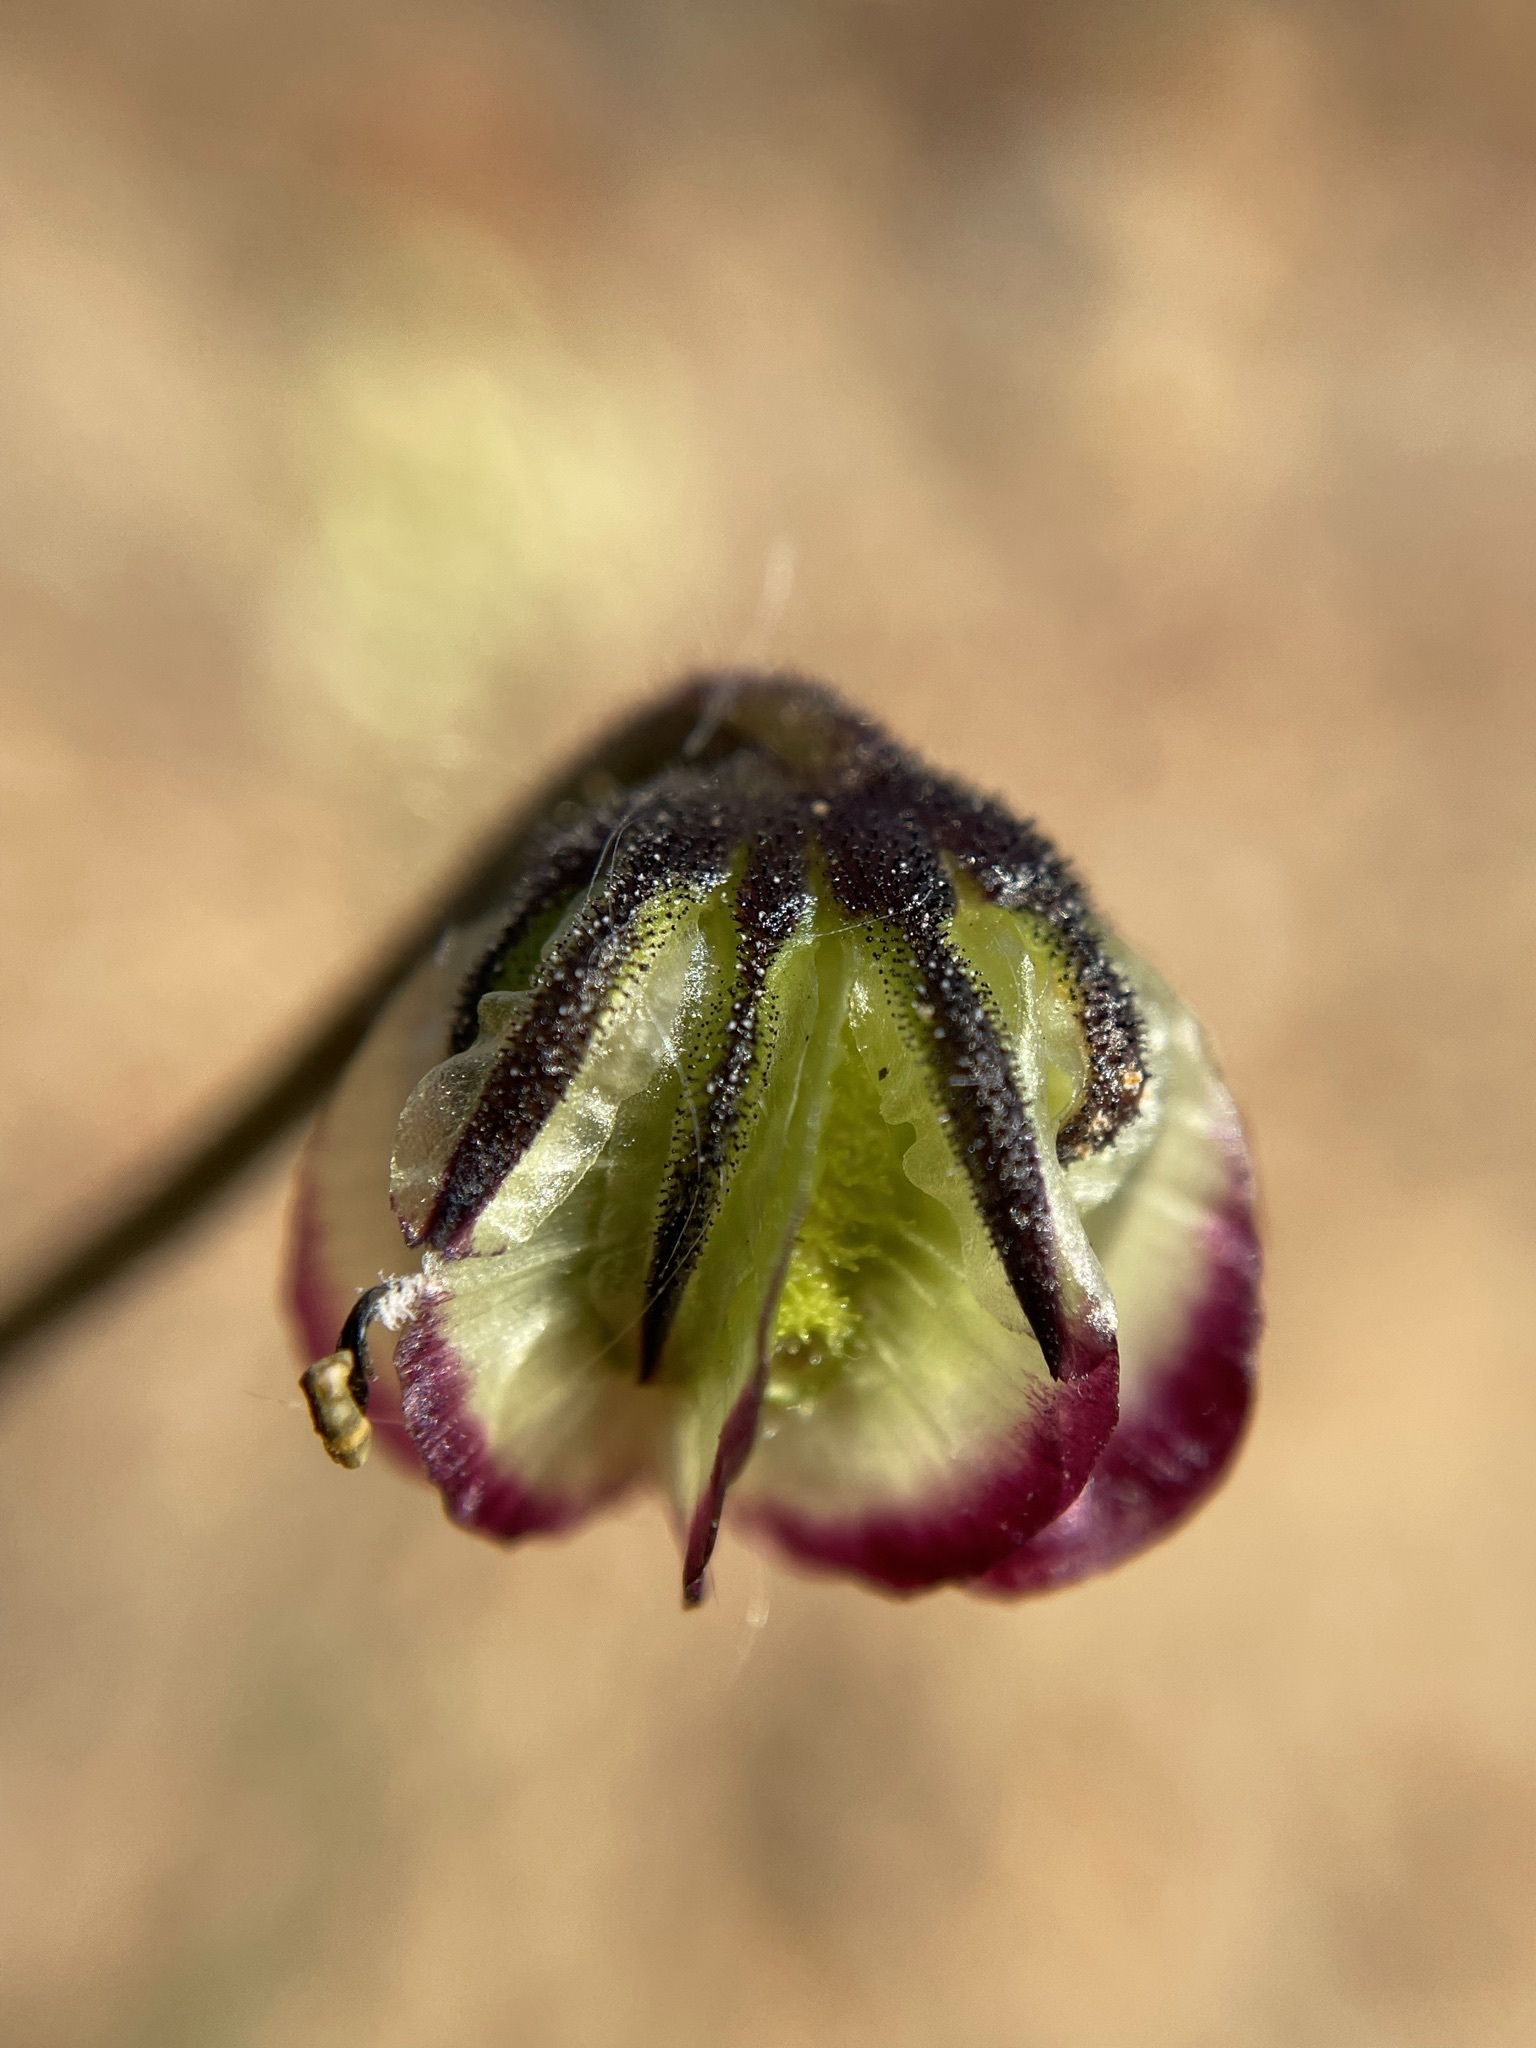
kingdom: Plantae
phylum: Tracheophyta
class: Magnoliopsida
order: Asterales
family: Asteraceae
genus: Osteospermum
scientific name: Osteospermum monstrosum
